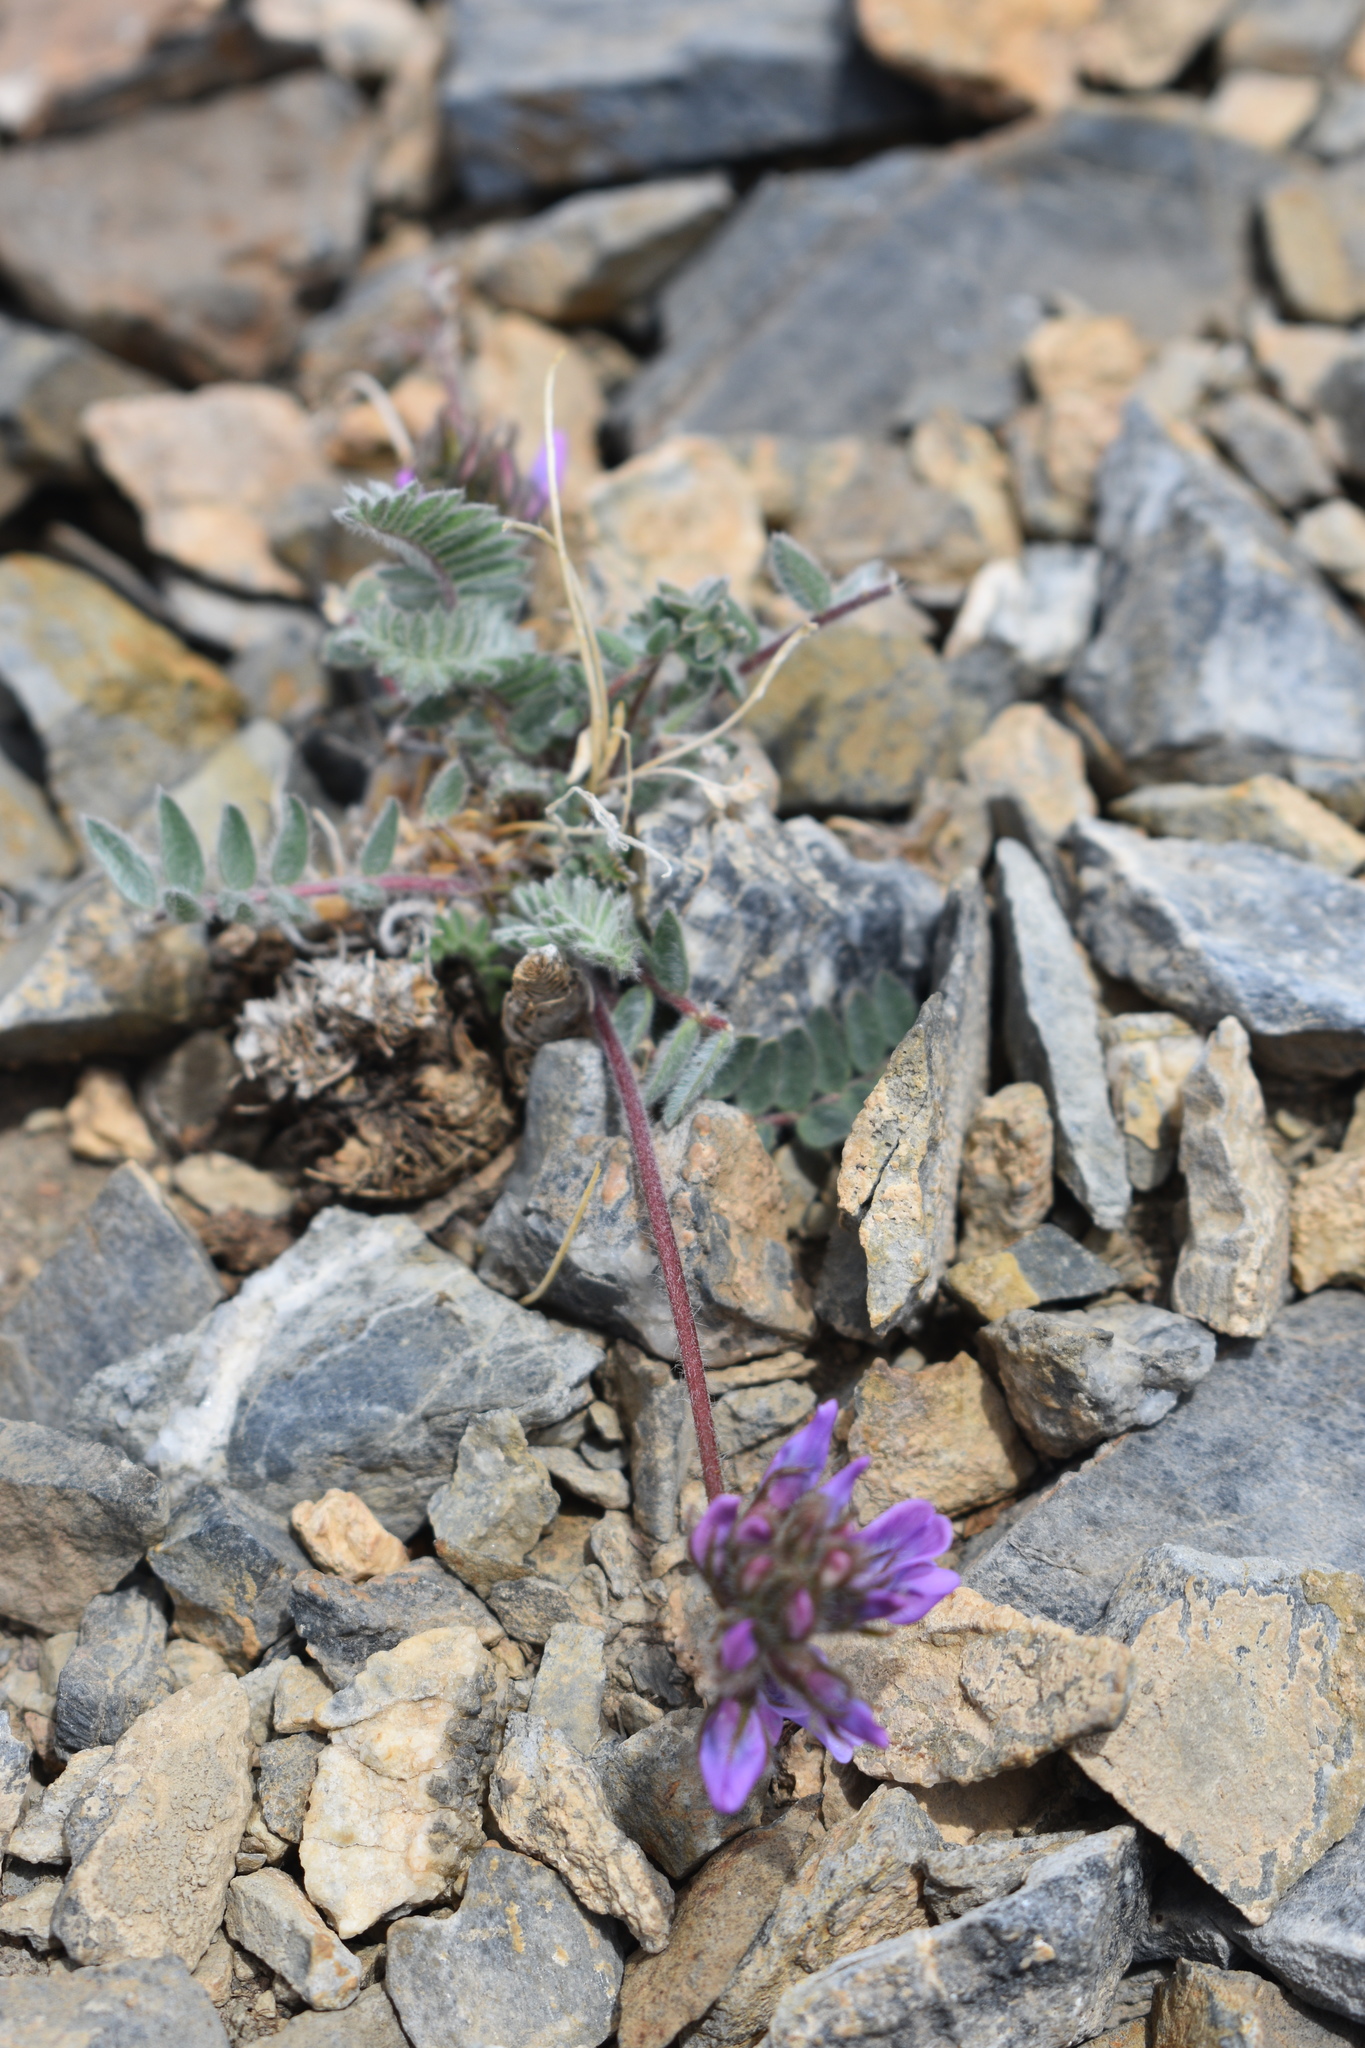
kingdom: Plantae
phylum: Tracheophyta
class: Magnoliopsida
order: Fabales
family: Fabaceae
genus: Oxytropis
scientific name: Oxytropis deflexa
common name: Stemmed oxytrope
